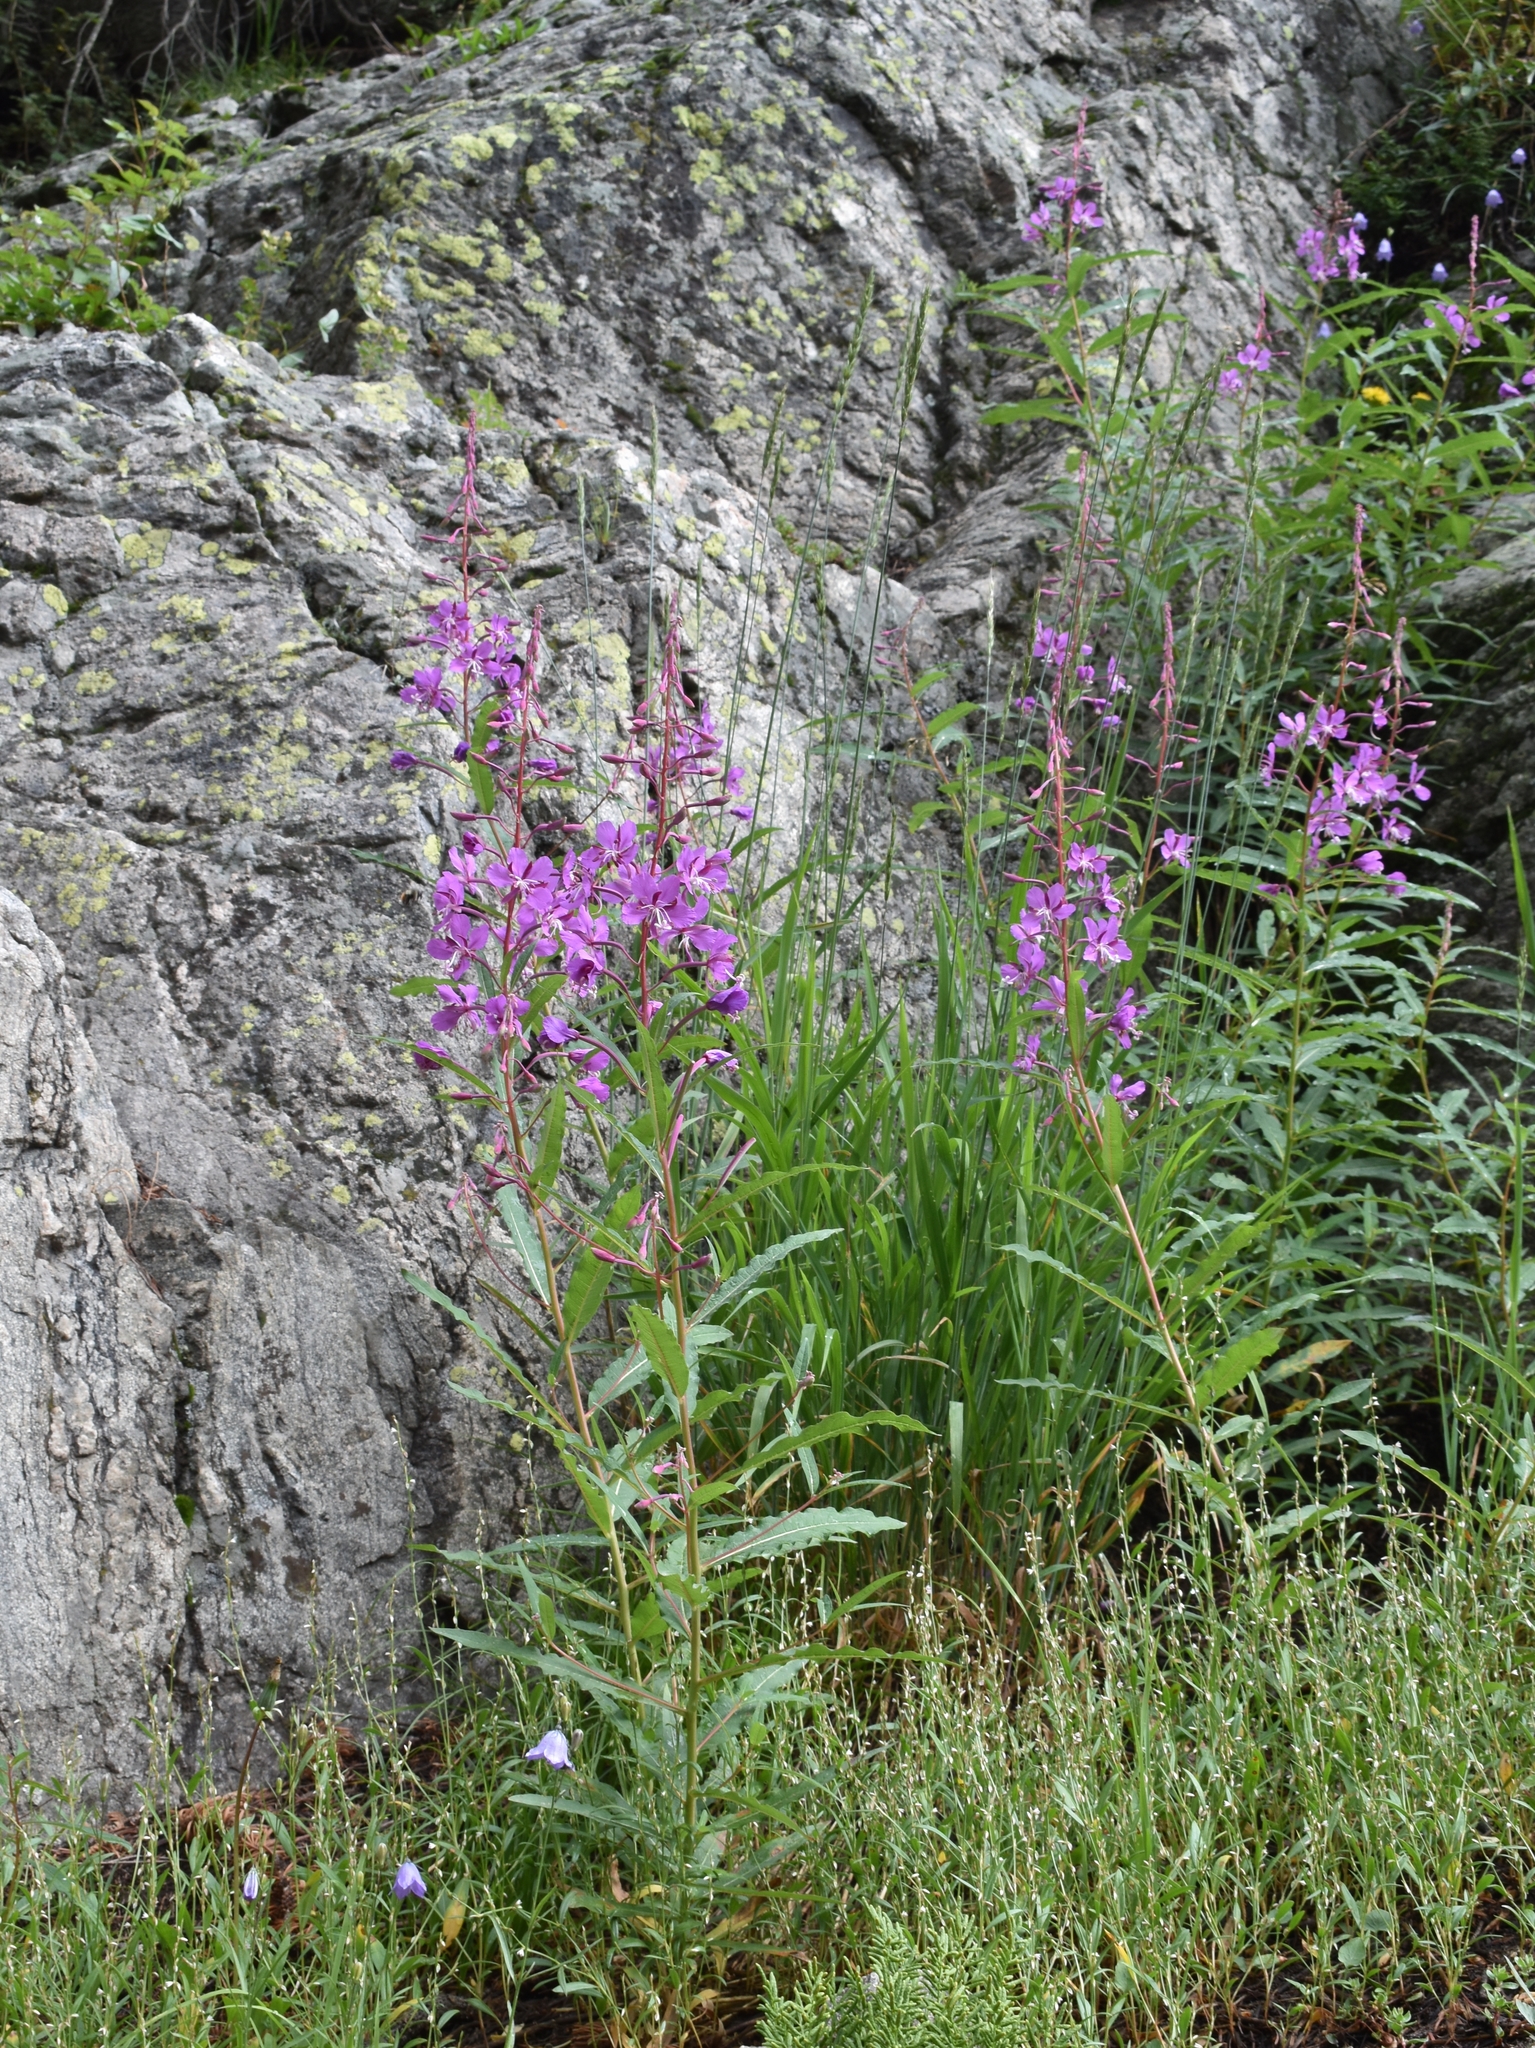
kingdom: Plantae
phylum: Tracheophyta
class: Magnoliopsida
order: Myrtales
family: Onagraceae
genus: Chamaenerion
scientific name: Chamaenerion angustifolium
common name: Fireweed
